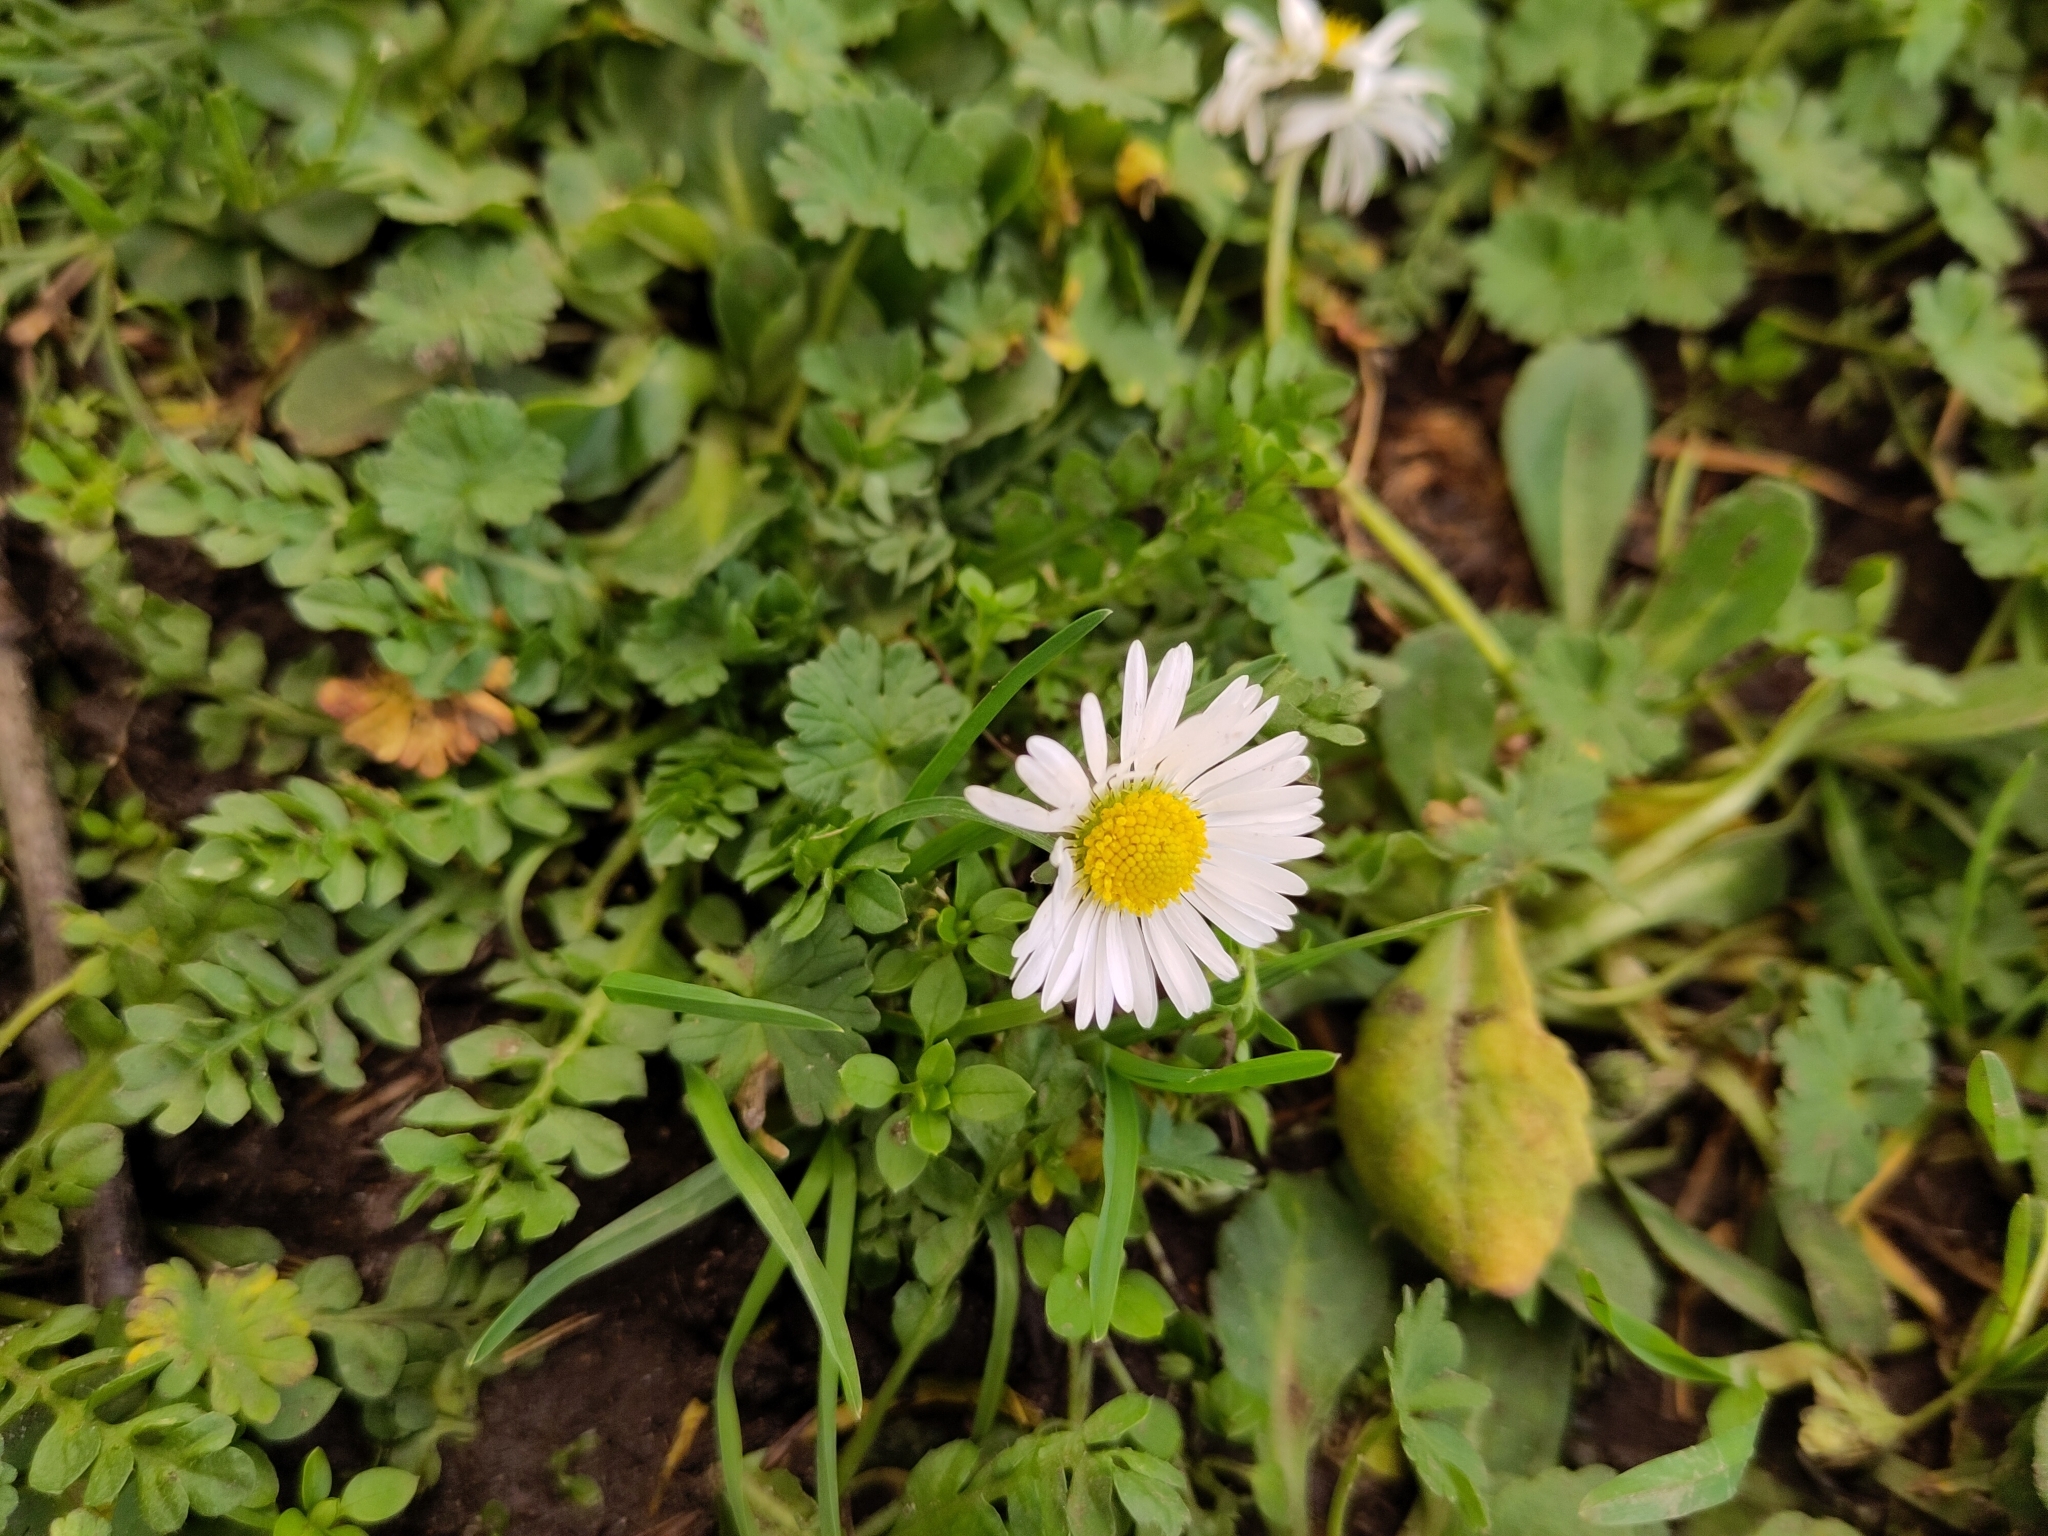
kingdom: Plantae
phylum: Tracheophyta
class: Magnoliopsida
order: Asterales
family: Asteraceae
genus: Bellis
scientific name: Bellis perennis
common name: Lawndaisy
